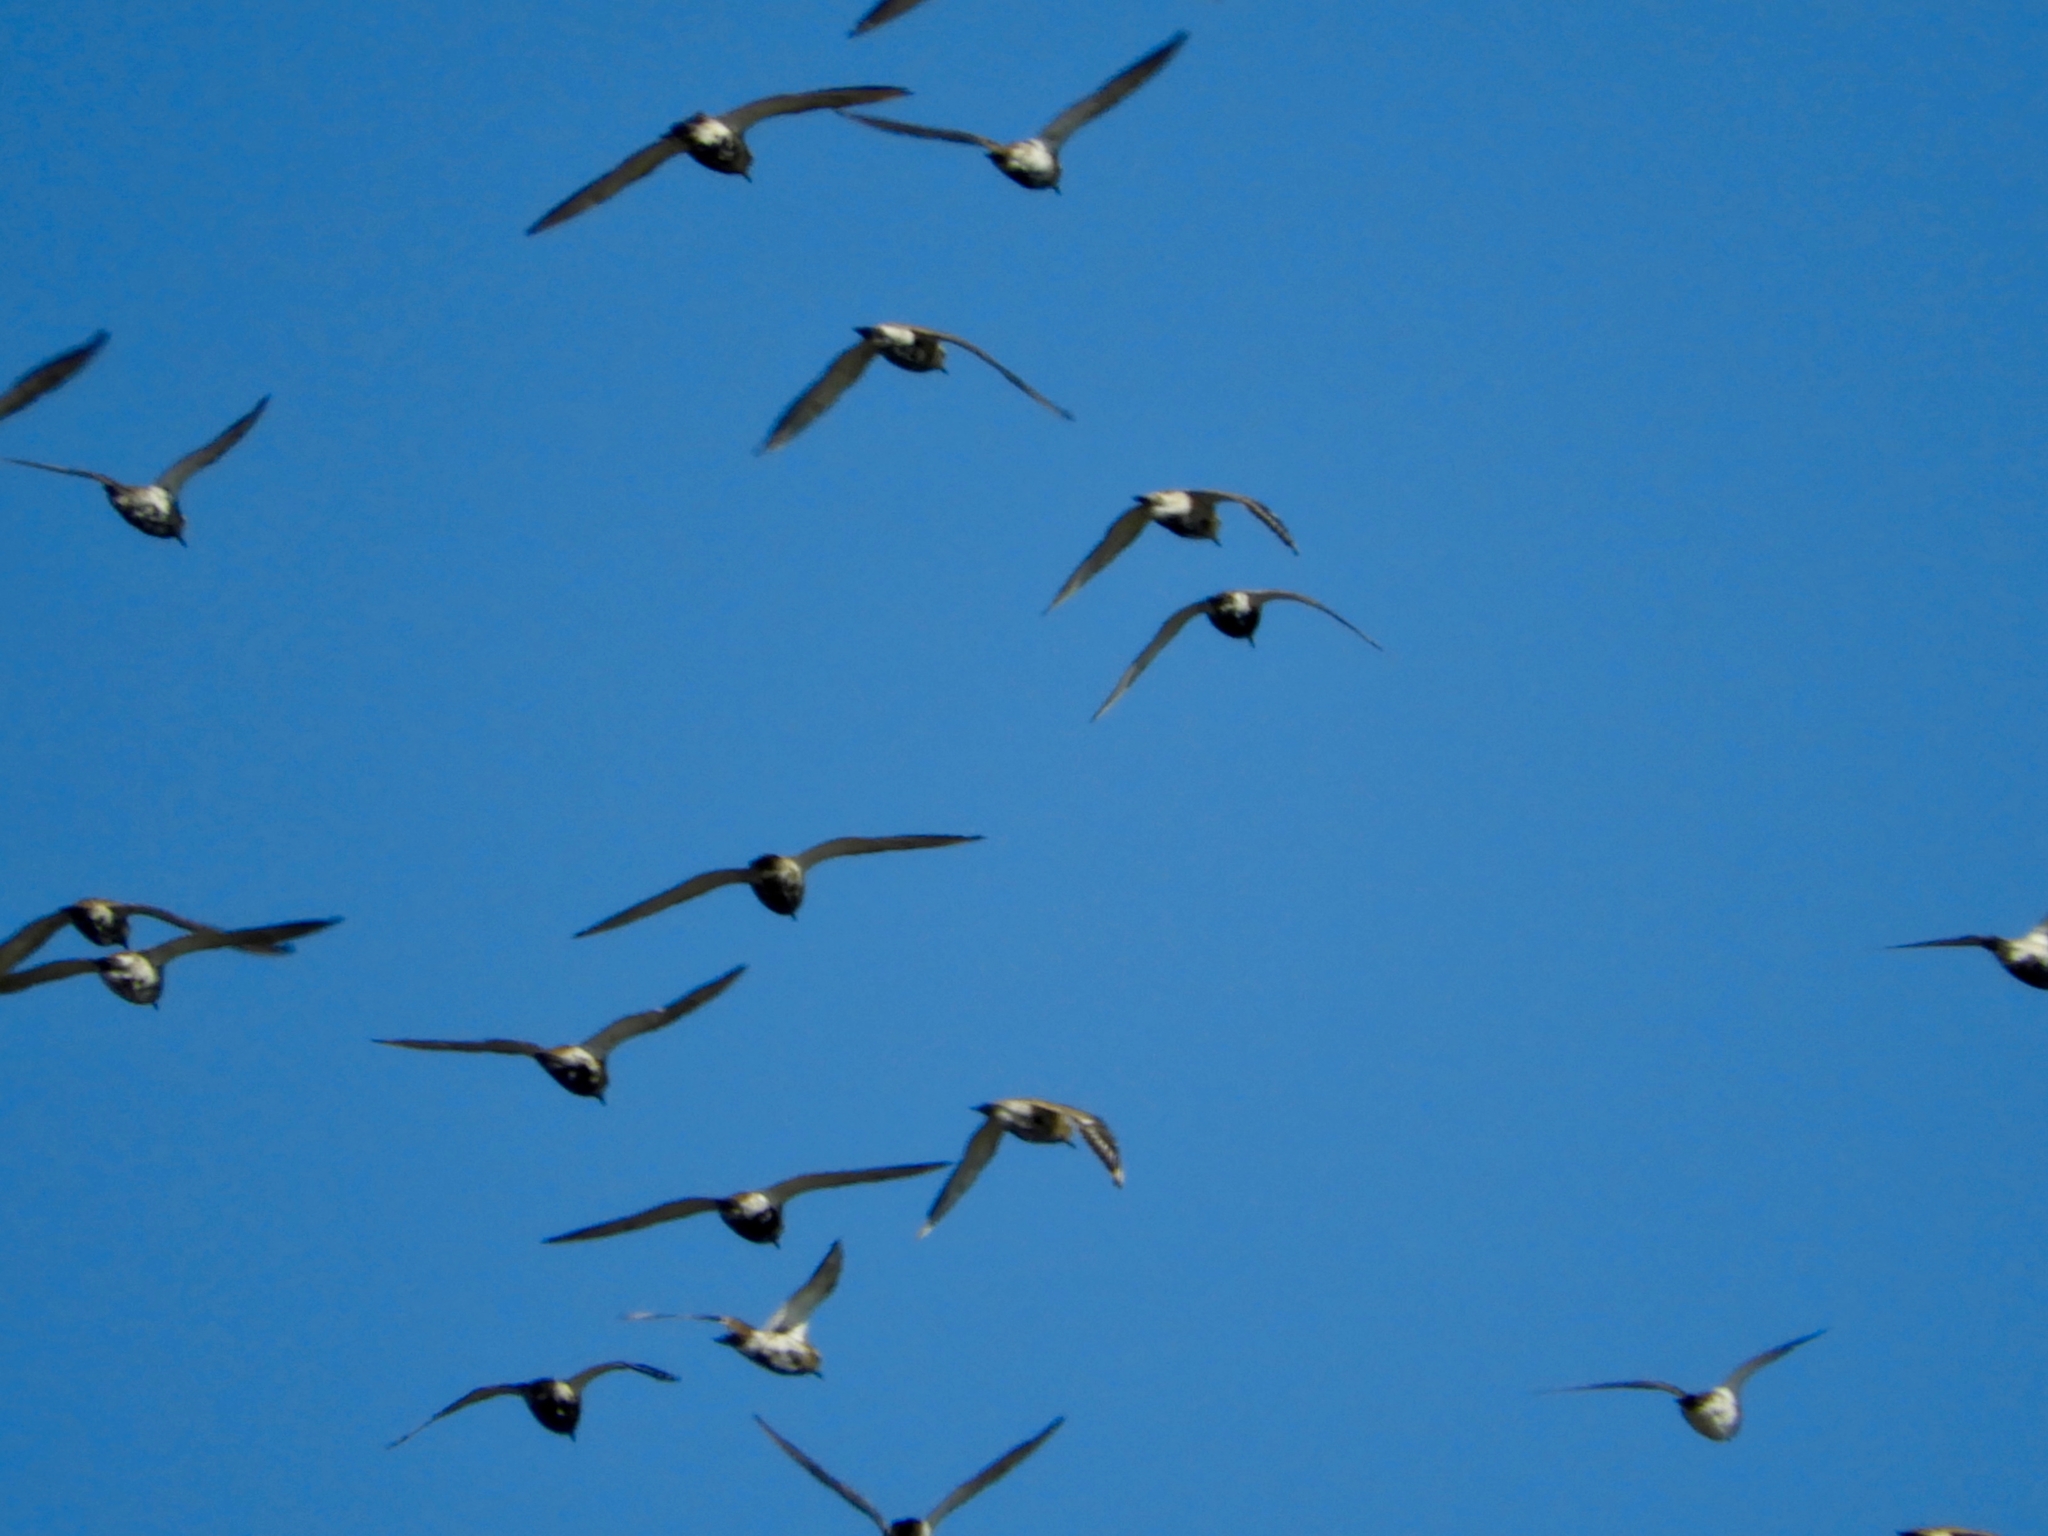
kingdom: Animalia
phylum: Chordata
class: Aves
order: Charadriiformes
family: Charadriidae
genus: Pluvialis
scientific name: Pluvialis apricaria
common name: European golden plover
